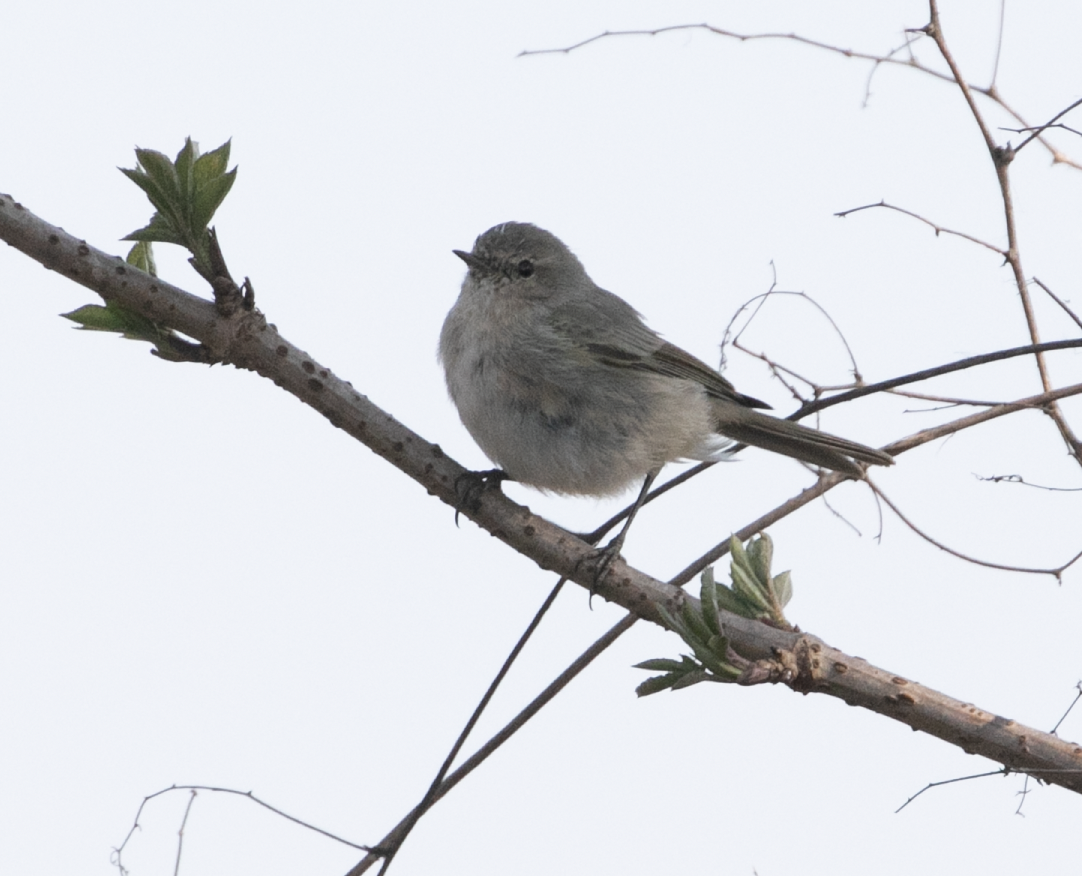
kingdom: Animalia
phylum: Chordata
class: Aves
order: Passeriformes
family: Phylloscopidae
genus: Phylloscopus
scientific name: Phylloscopus collybita
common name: Common chiffchaff
